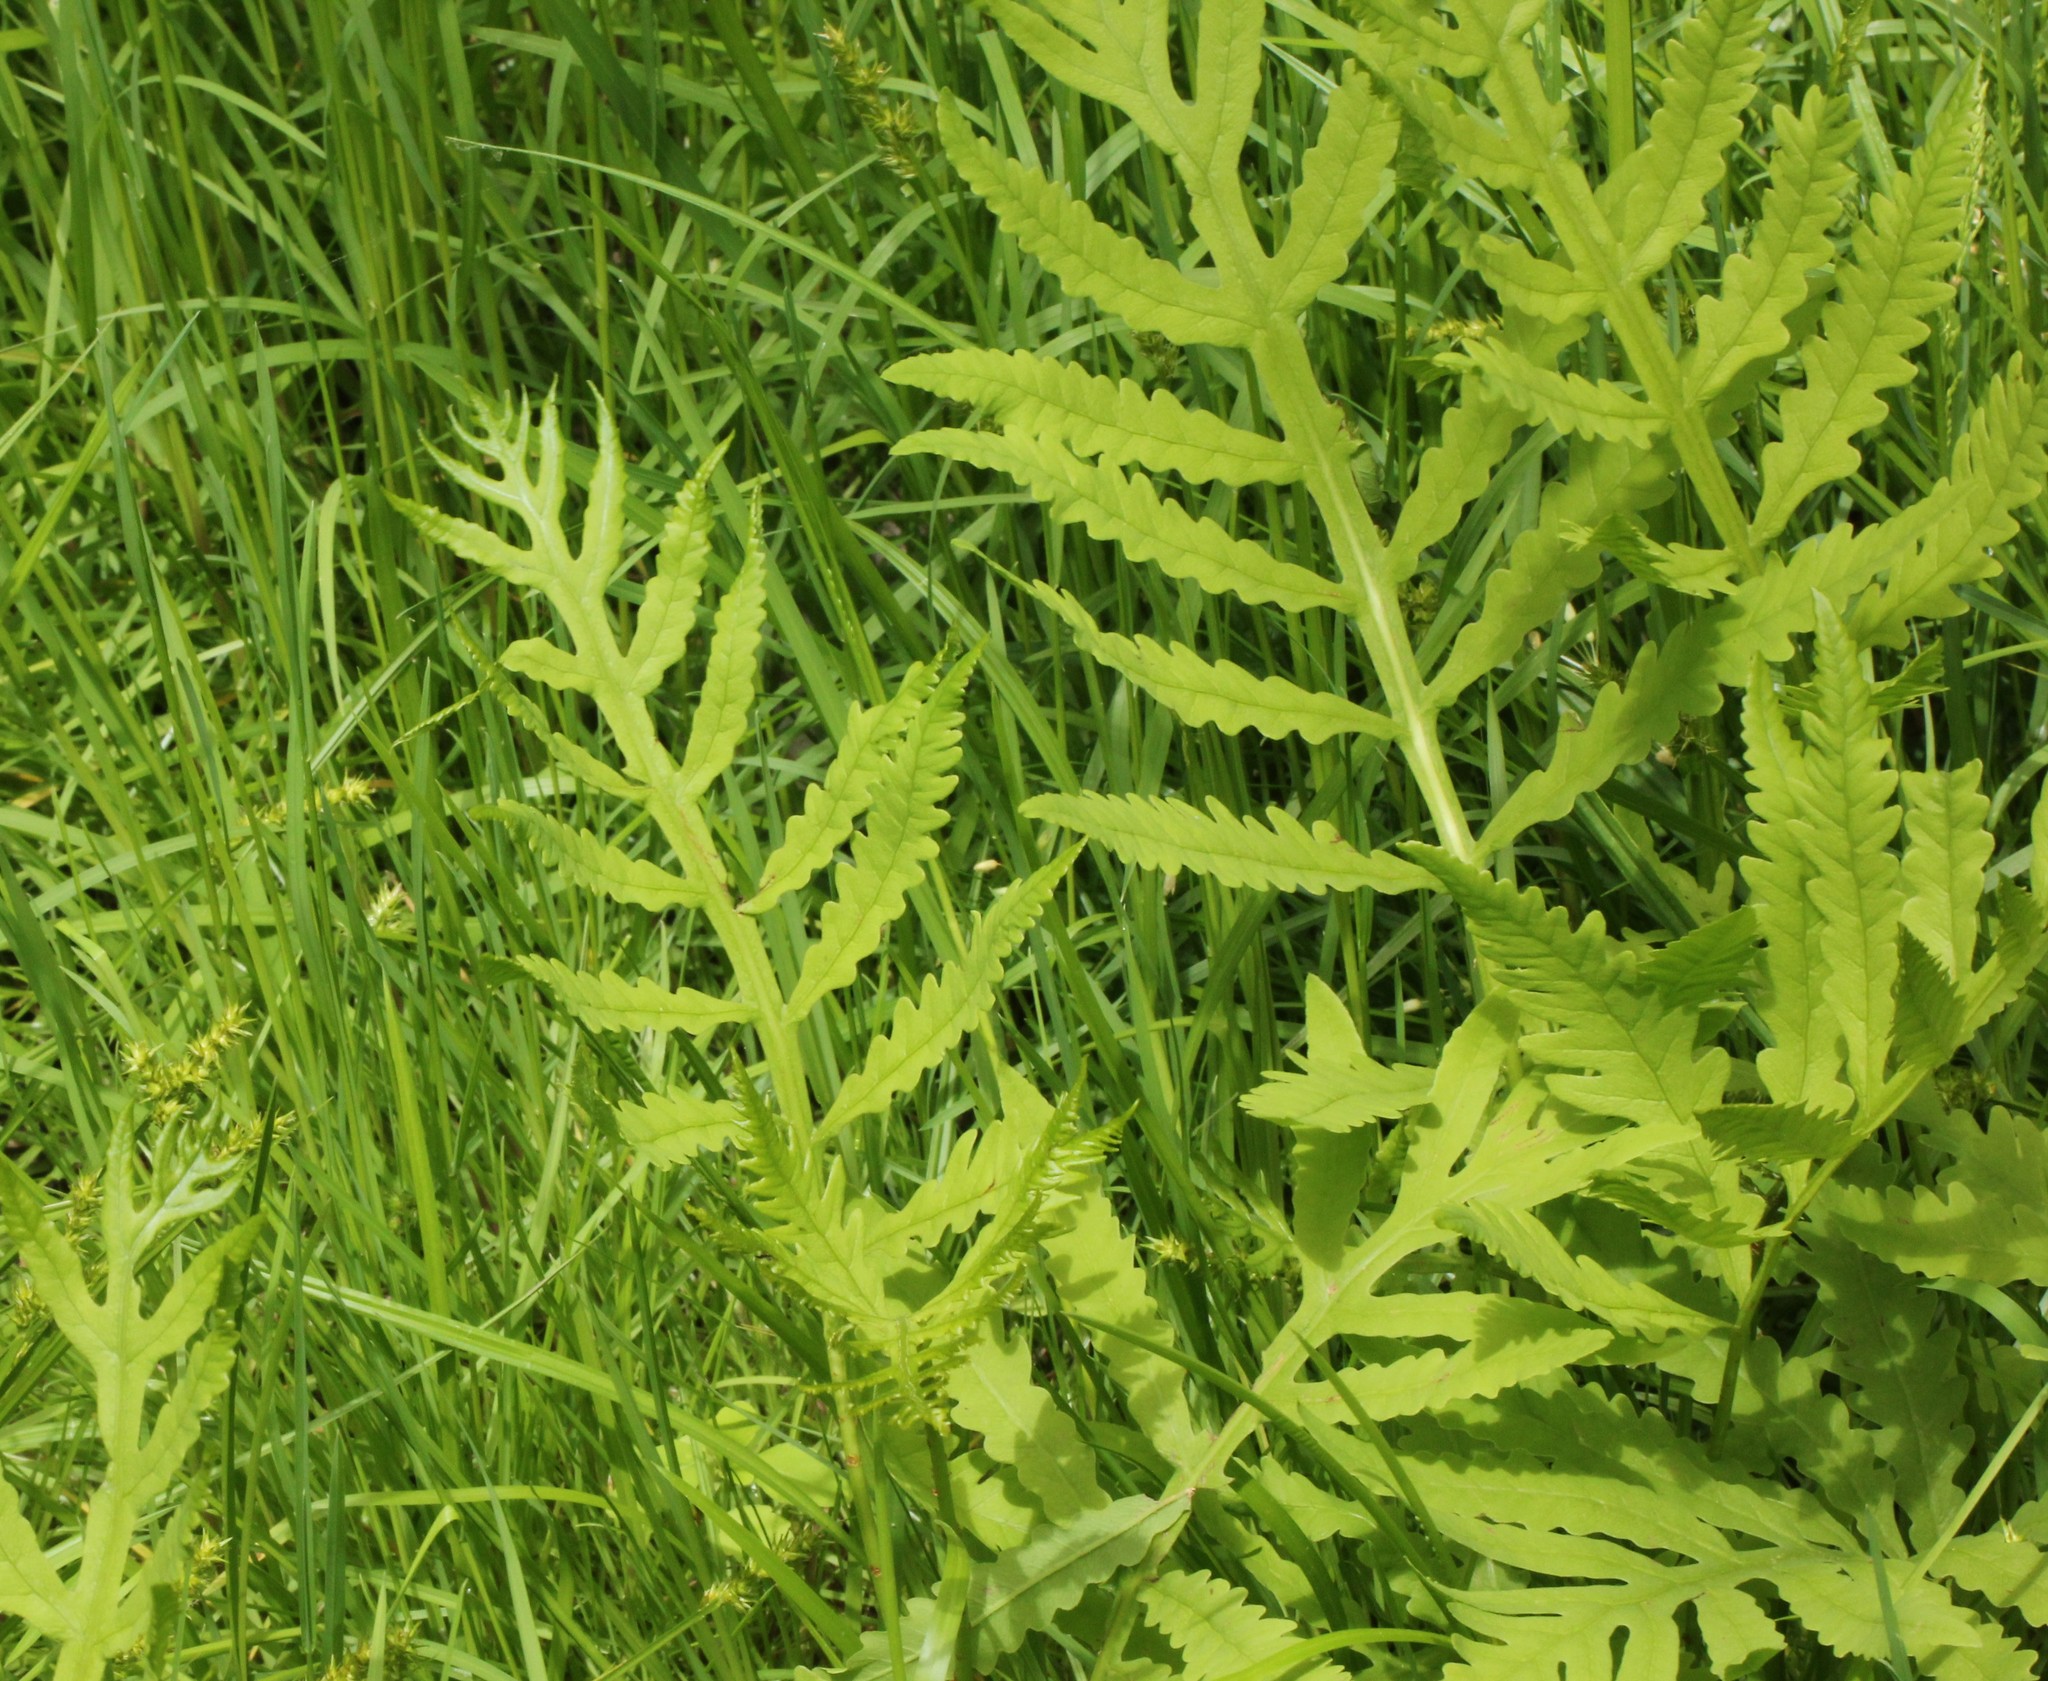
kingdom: Plantae
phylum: Tracheophyta
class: Polypodiopsida
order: Polypodiales
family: Onocleaceae
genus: Onoclea
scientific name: Onoclea sensibilis
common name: Sensitive fern
